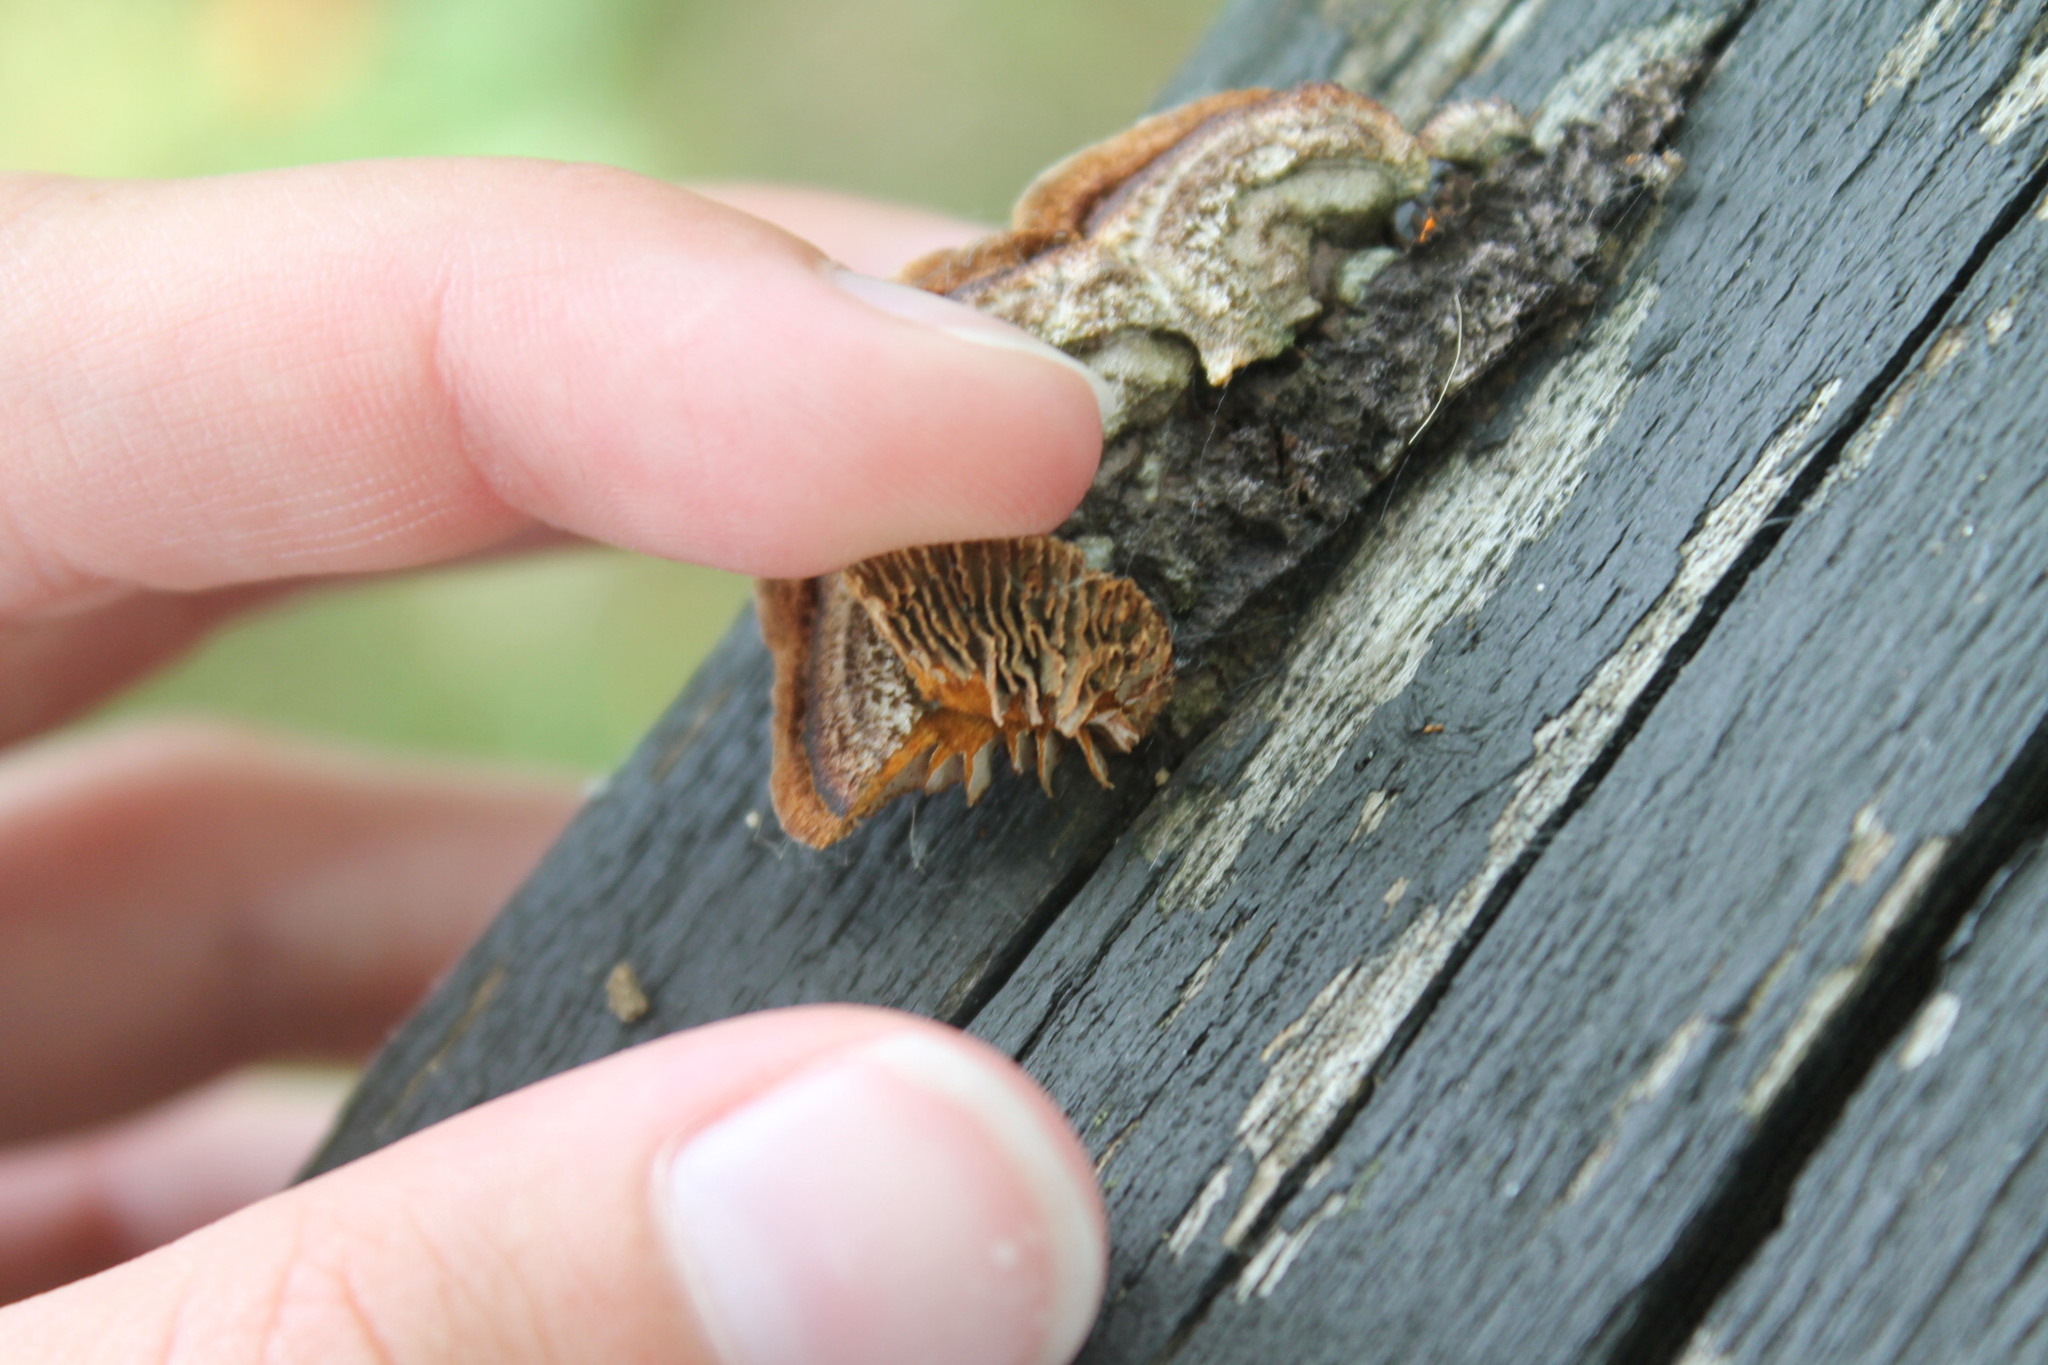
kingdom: Fungi
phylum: Basidiomycota
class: Agaricomycetes
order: Gloeophyllales
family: Gloeophyllaceae
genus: Gloeophyllum
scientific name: Gloeophyllum sepiarium
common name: Conifer mazegill
